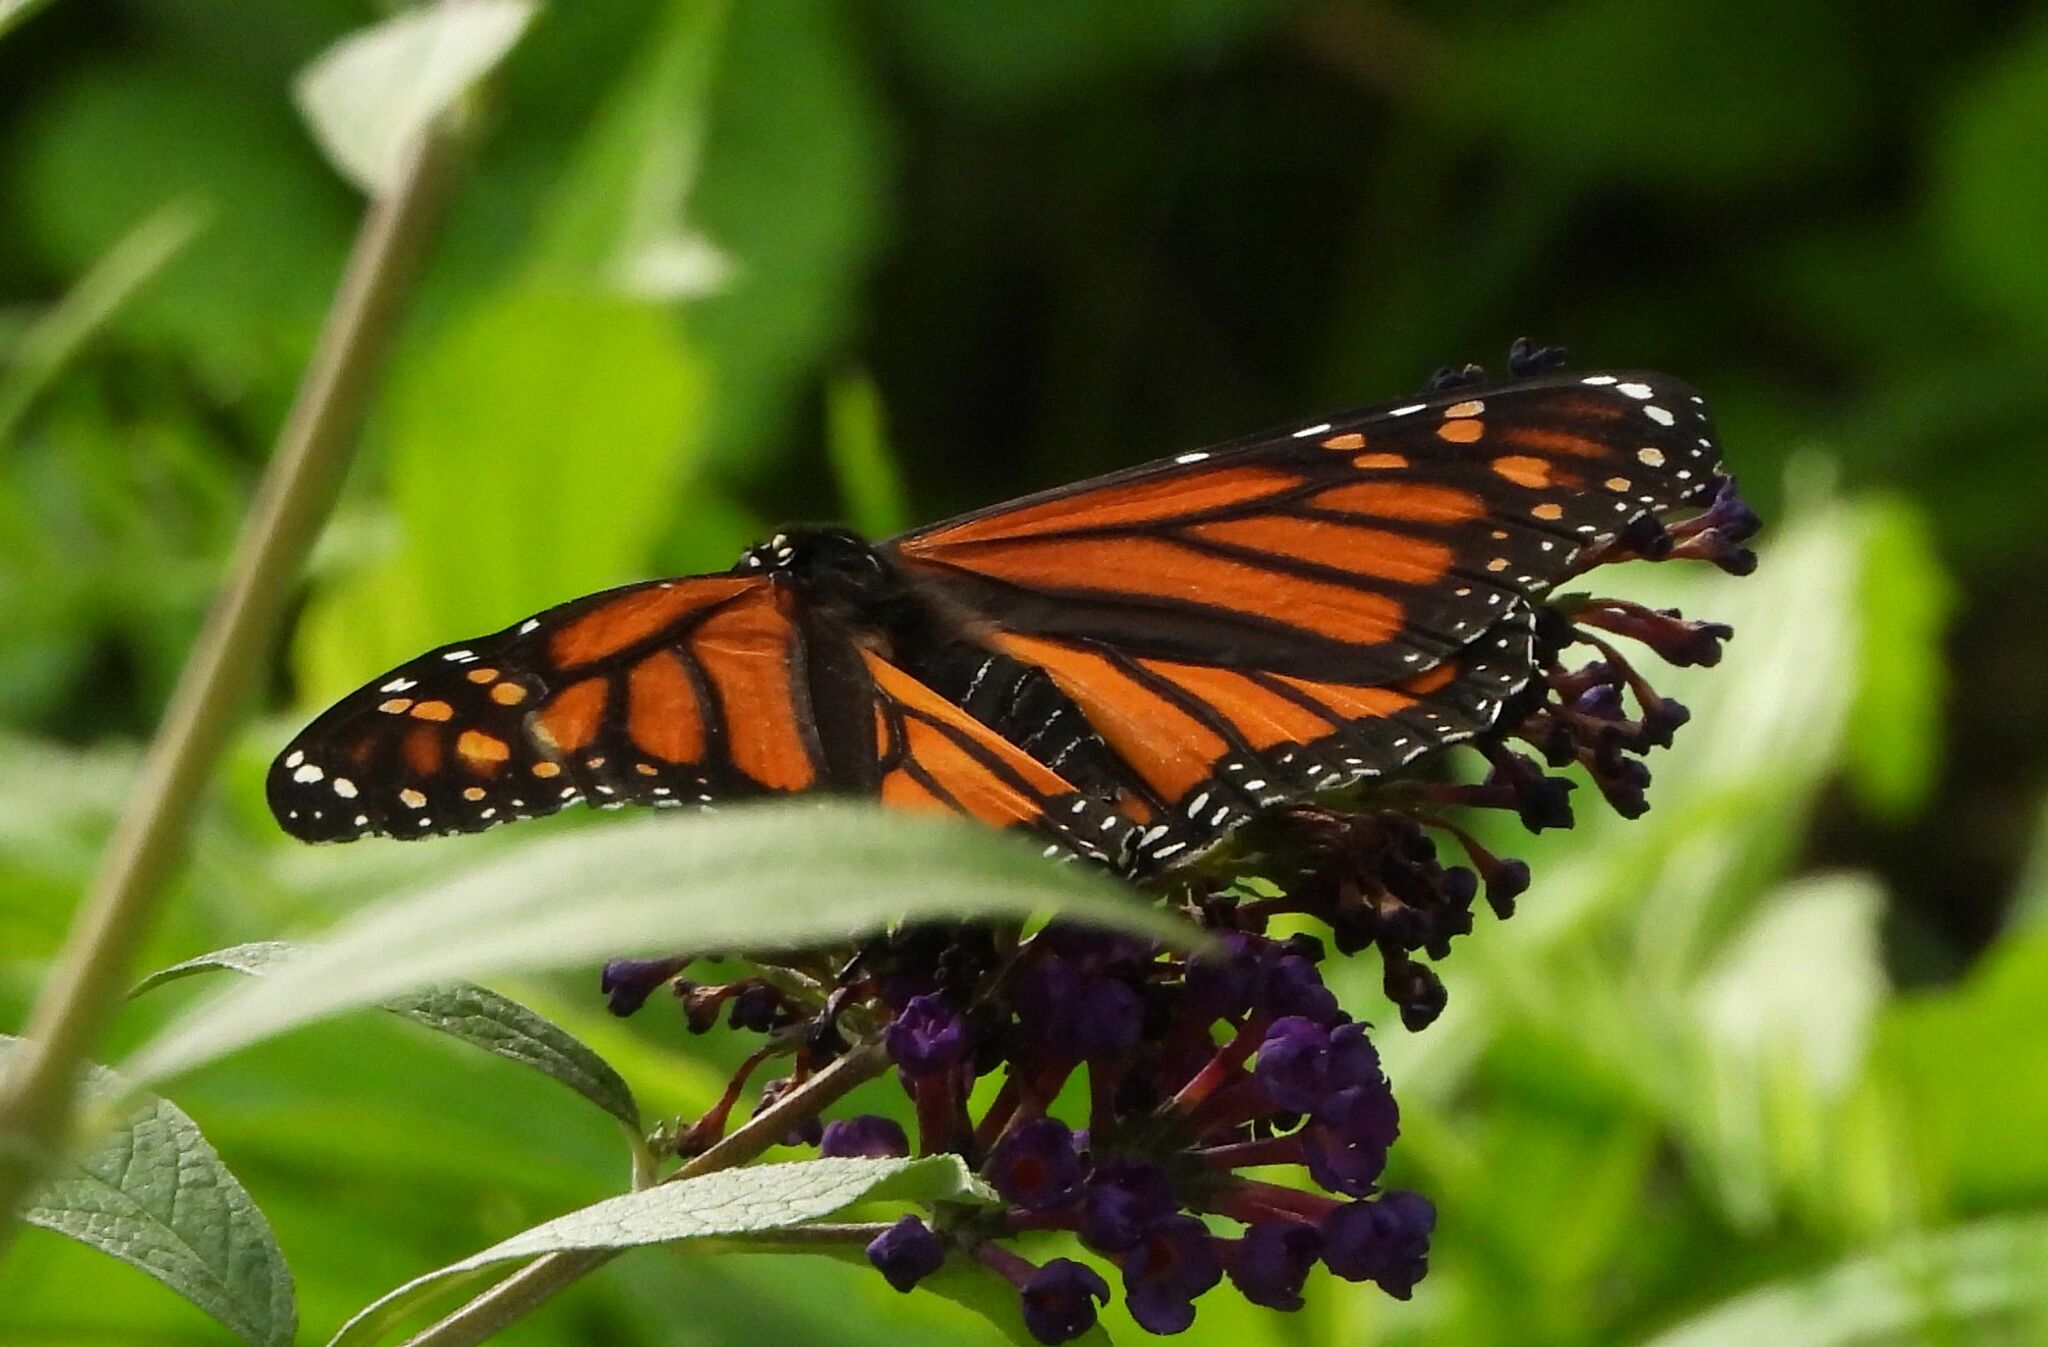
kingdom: Animalia
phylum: Arthropoda
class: Insecta
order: Lepidoptera
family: Nymphalidae
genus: Danaus
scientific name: Danaus plexippus
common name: Monarch
